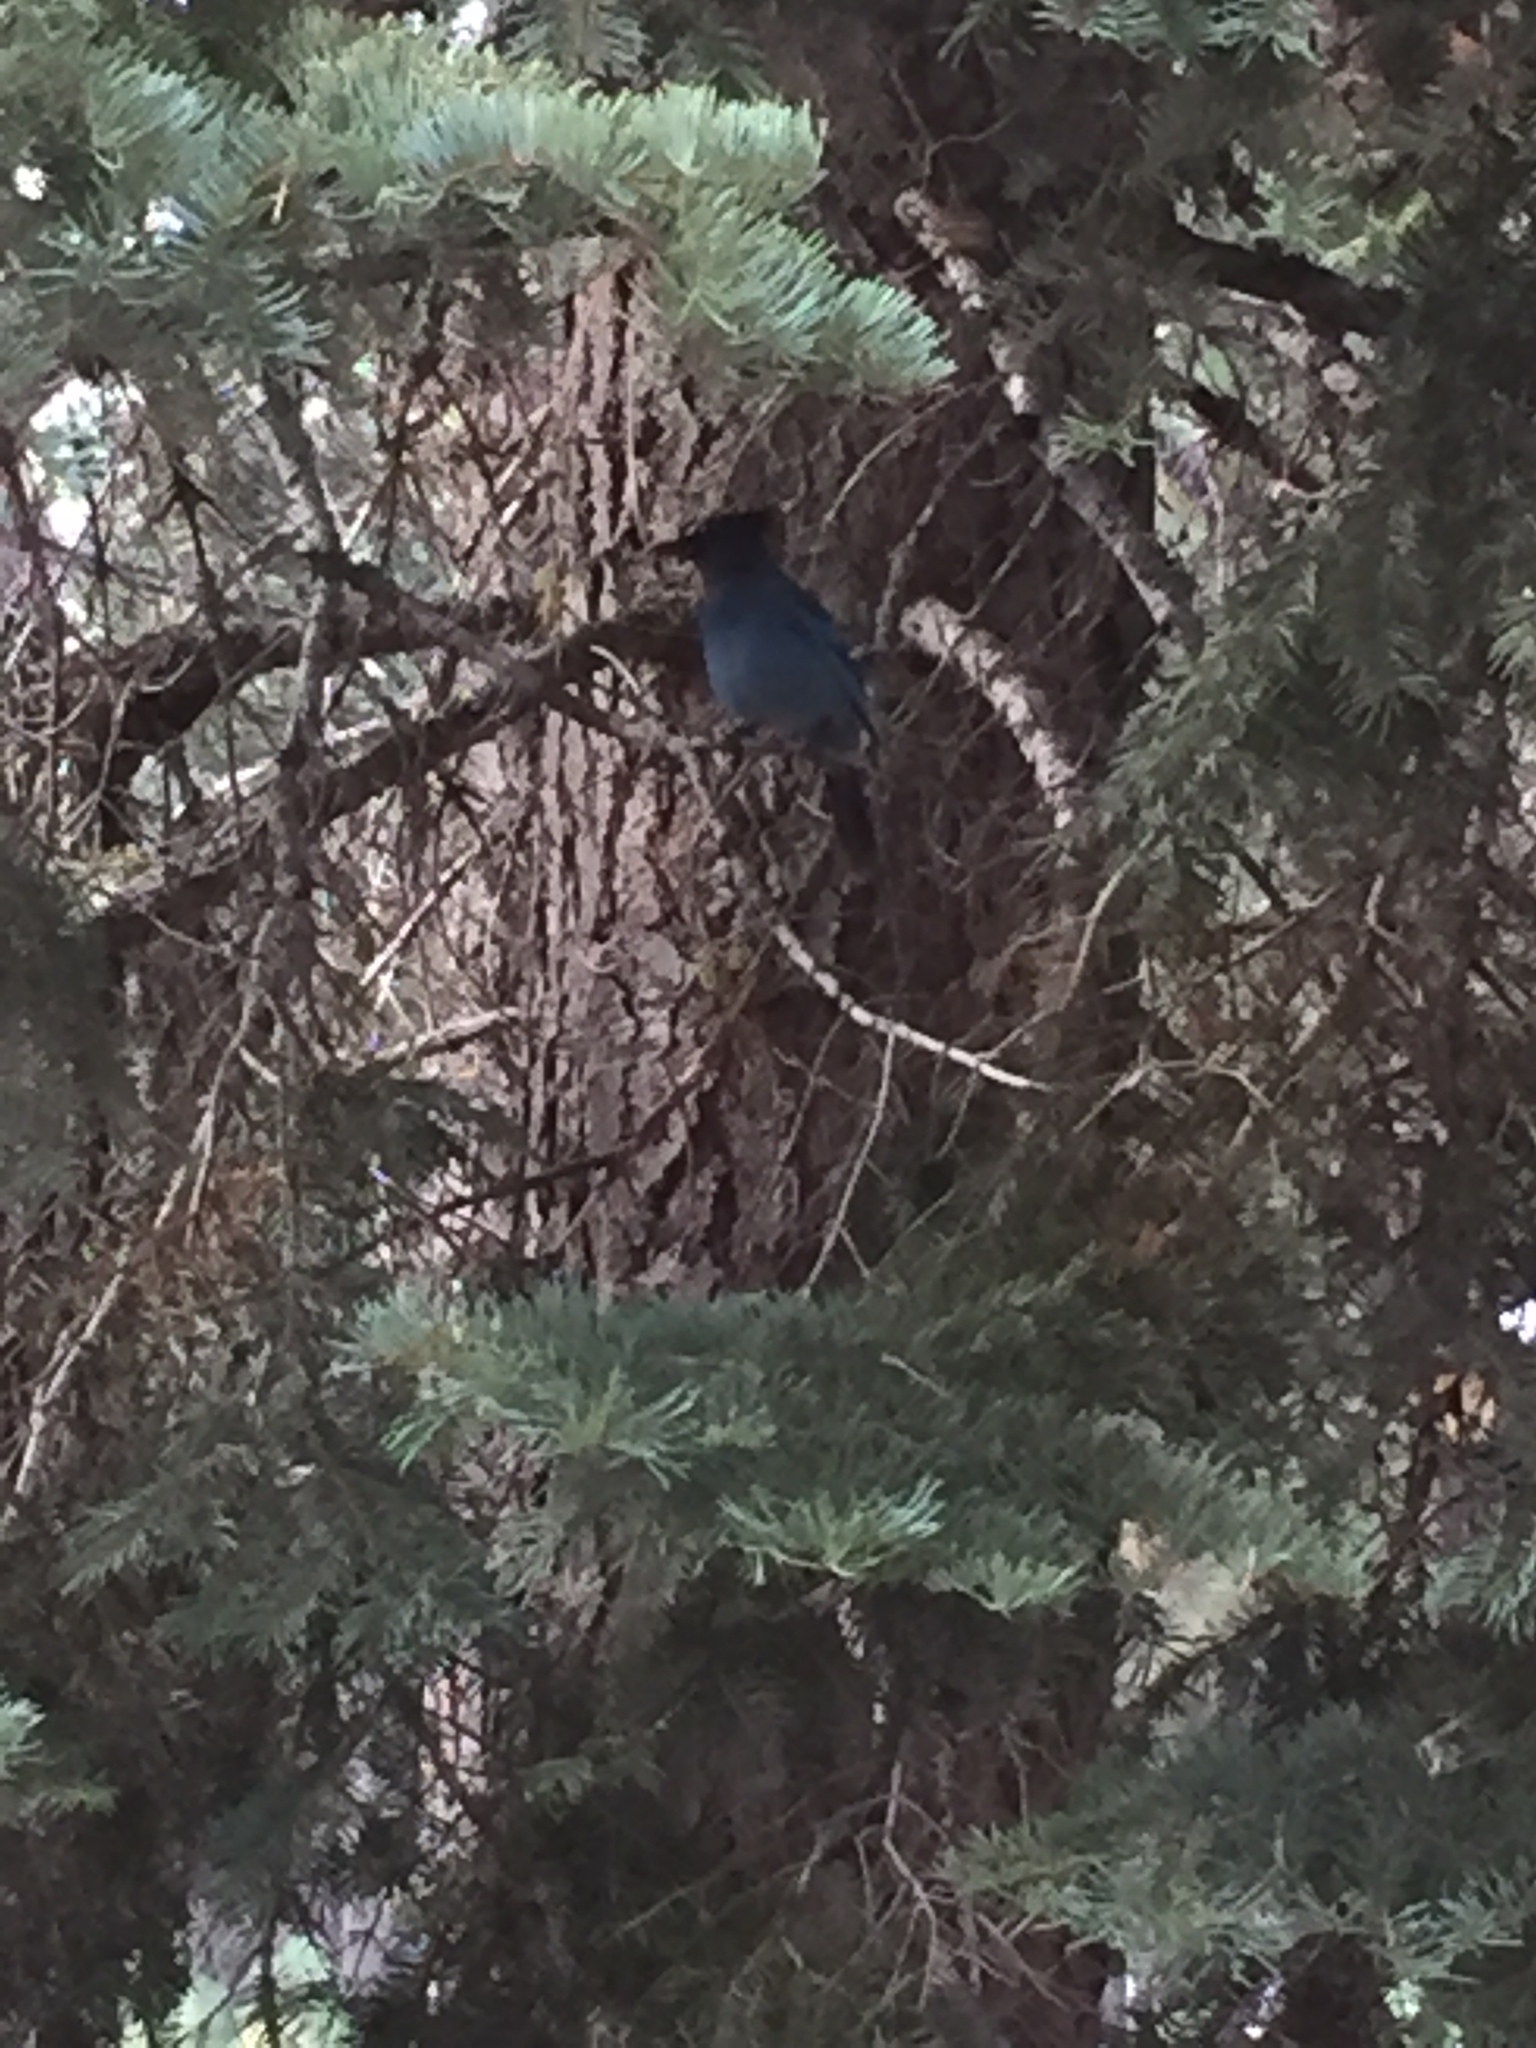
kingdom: Animalia
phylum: Chordata
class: Aves
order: Passeriformes
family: Corvidae
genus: Cyanocitta
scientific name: Cyanocitta stelleri
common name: Steller's jay
